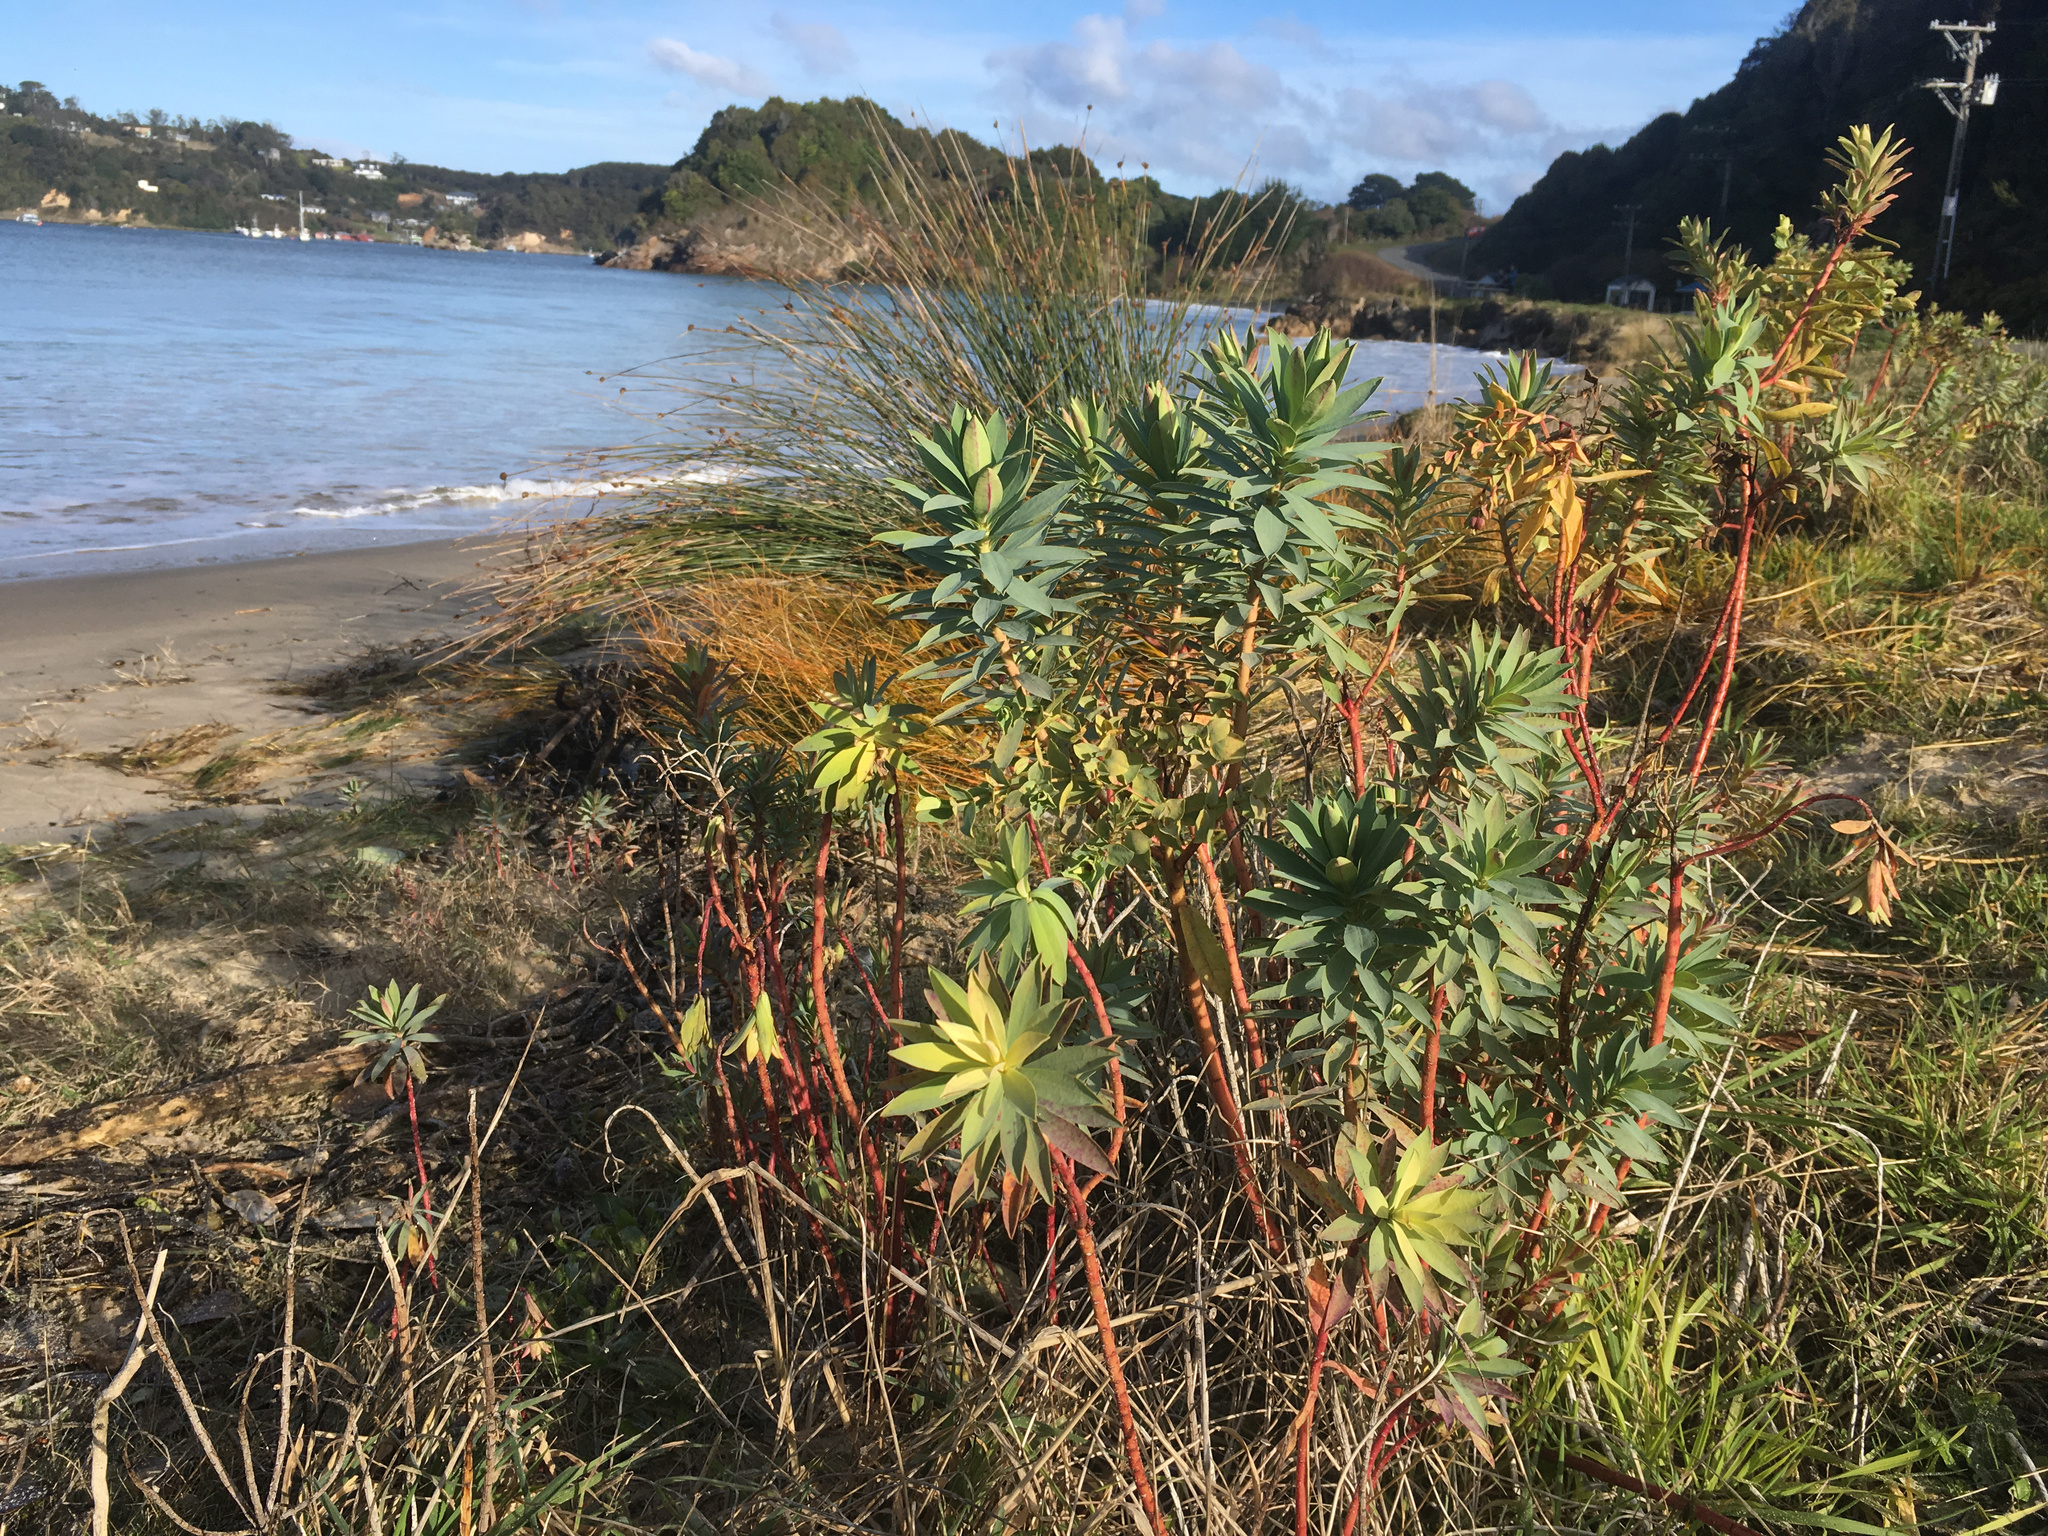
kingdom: Plantae
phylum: Tracheophyta
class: Magnoliopsida
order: Malpighiales
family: Euphorbiaceae
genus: Euphorbia
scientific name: Euphorbia glauca
